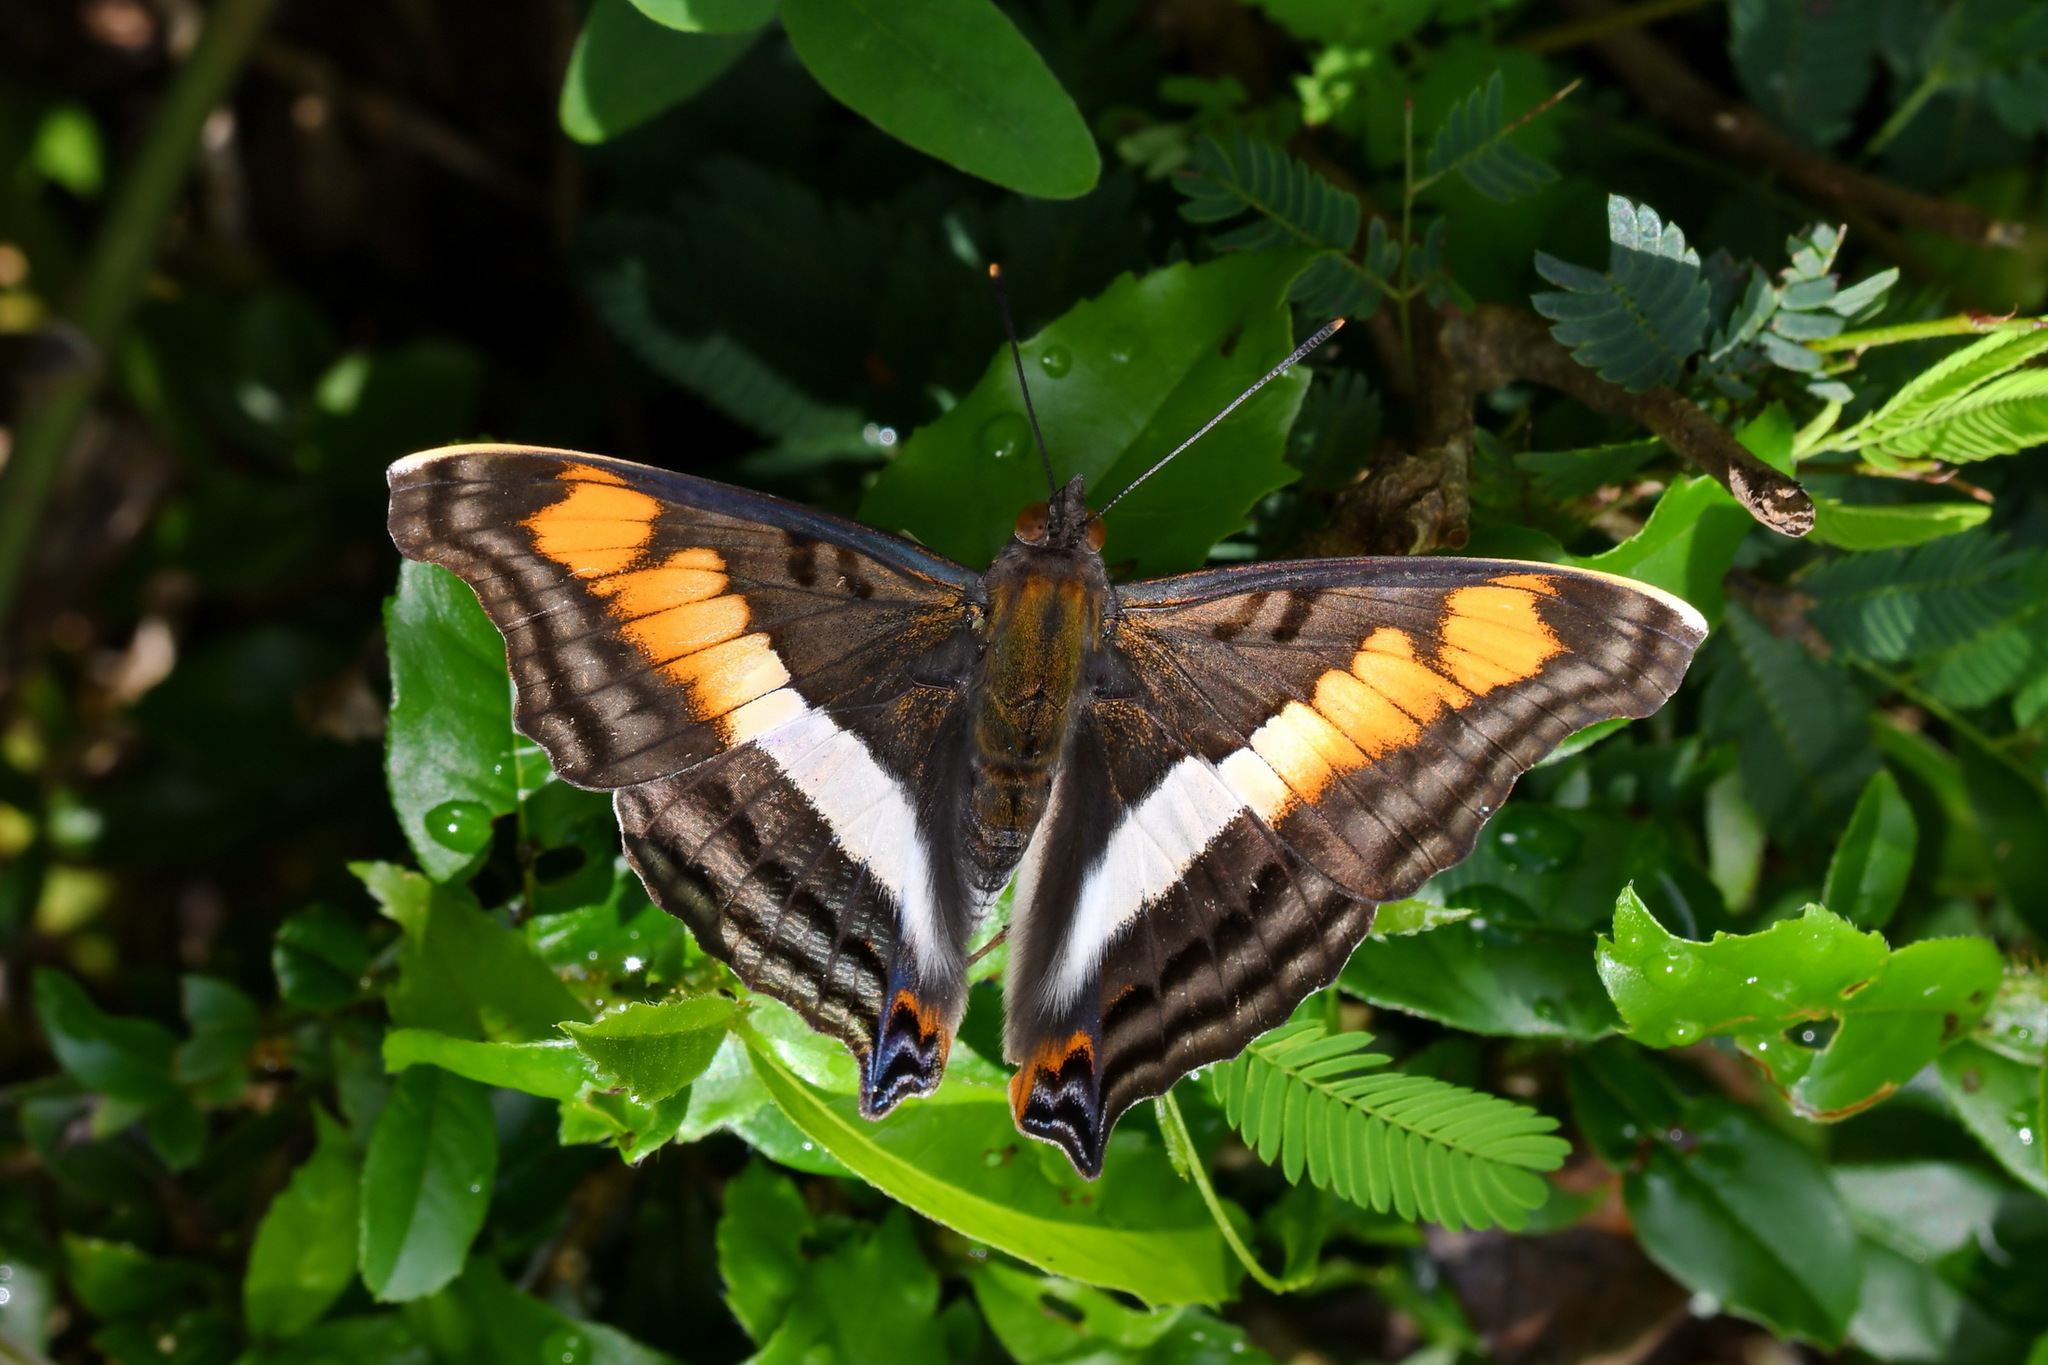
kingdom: Animalia
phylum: Arthropoda
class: Insecta
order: Lepidoptera
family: Nymphalidae
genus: Doxocopa
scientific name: Doxocopa linda
